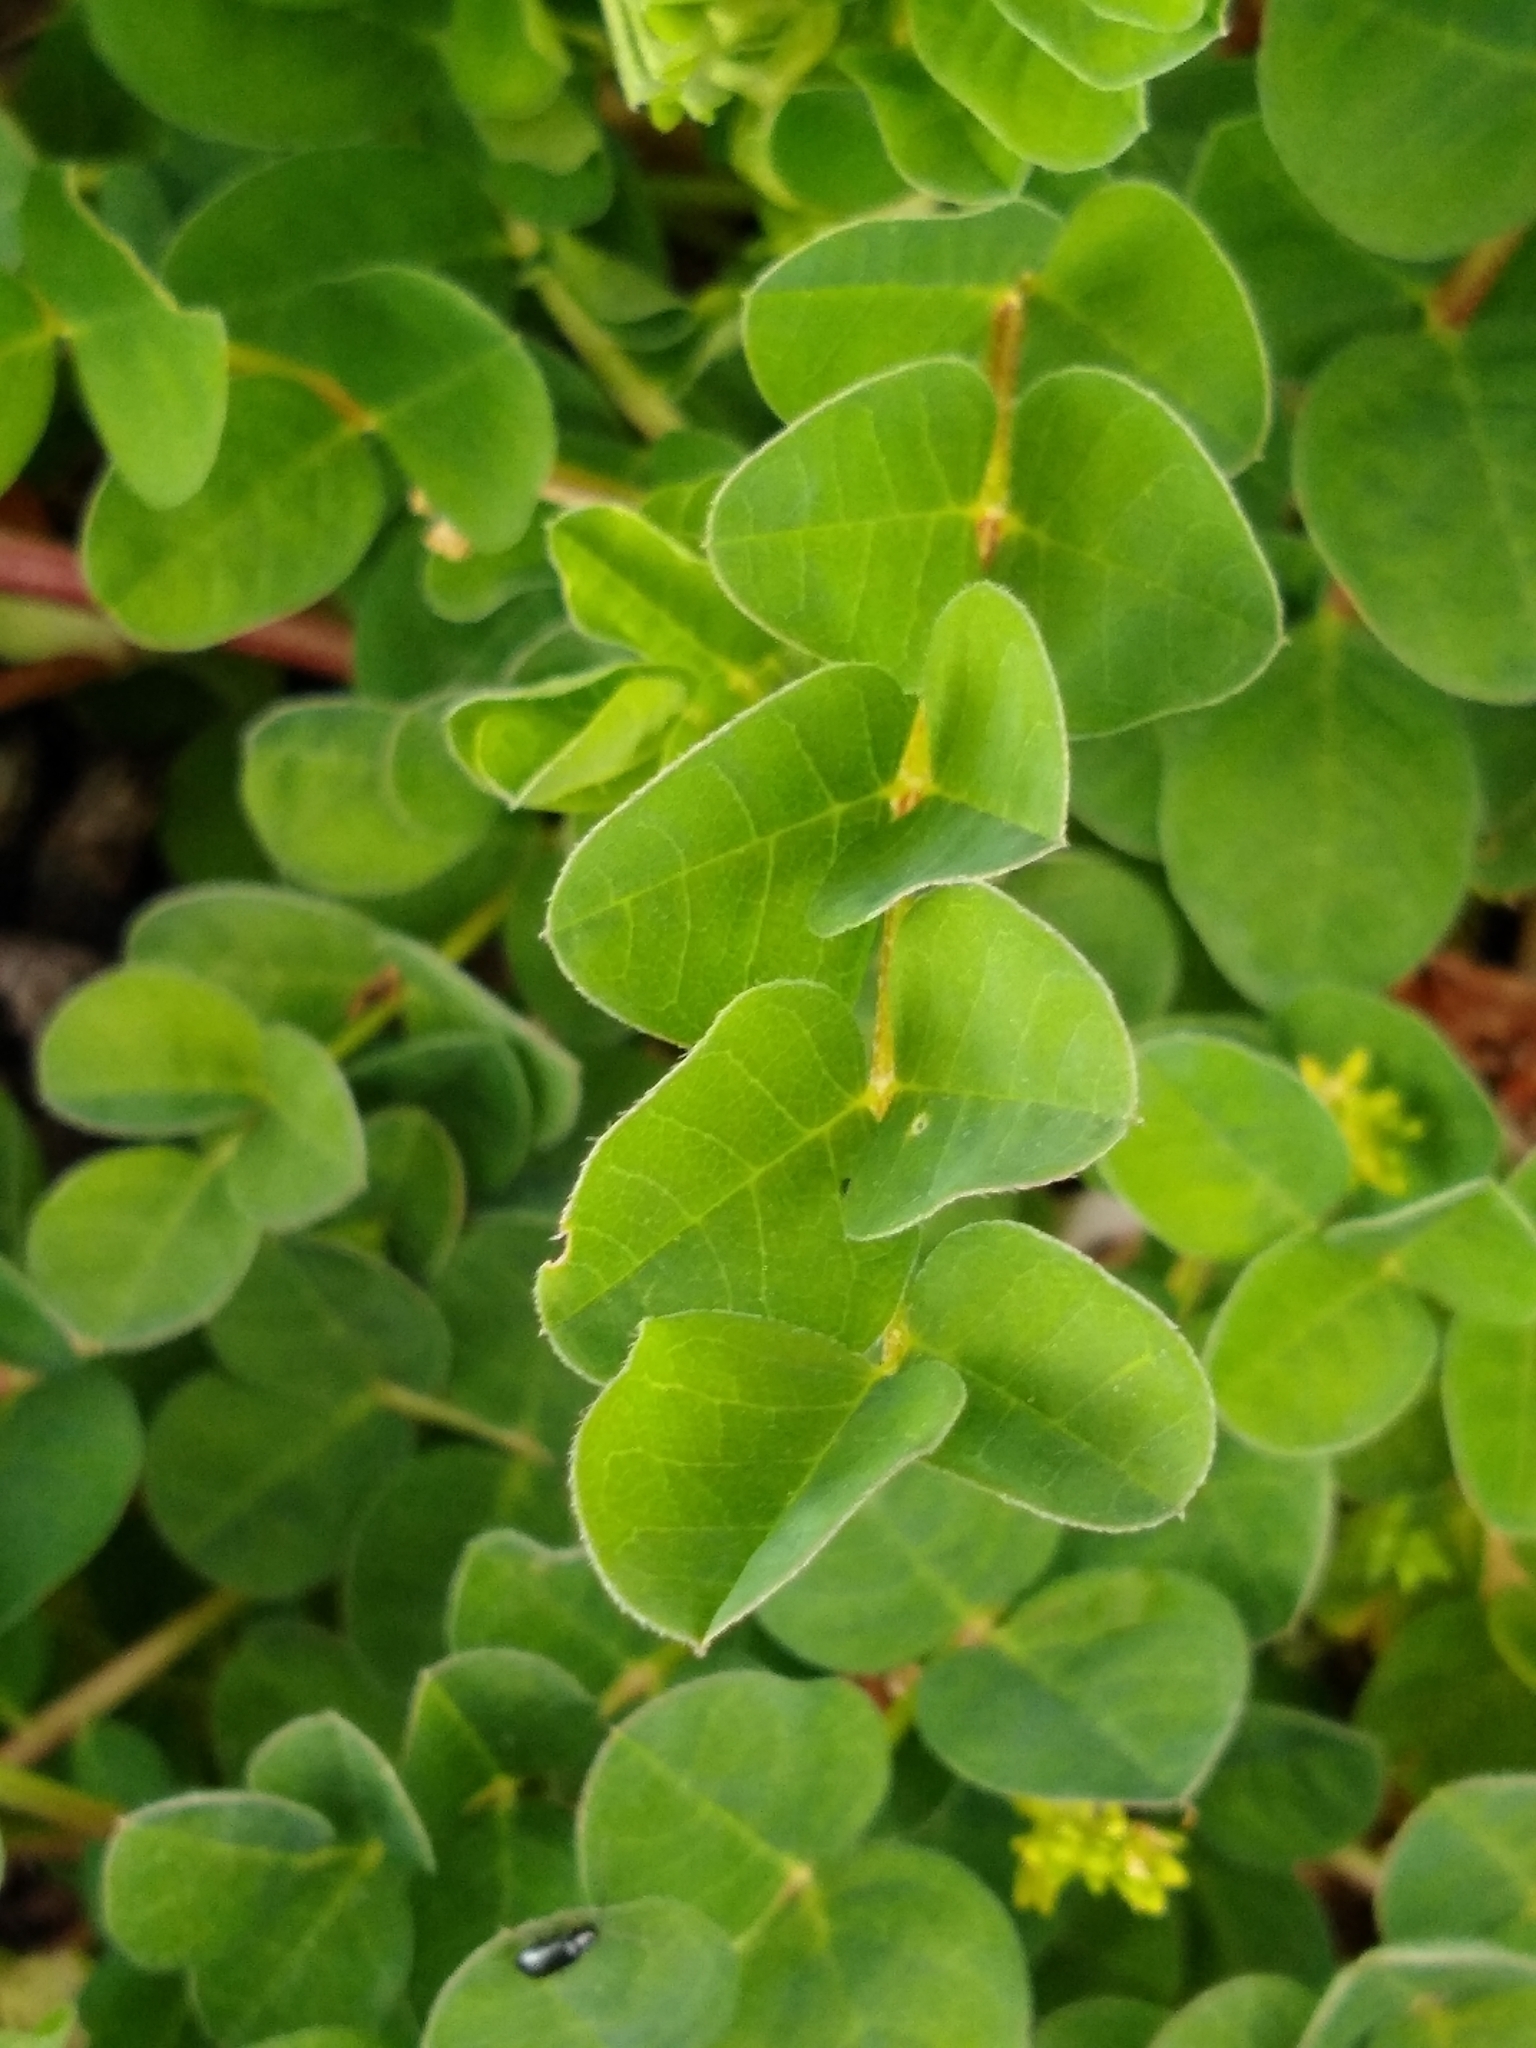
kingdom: Plantae
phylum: Tracheophyta
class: Magnoliopsida
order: Fabales
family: Fabaceae
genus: Astragalus
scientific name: Astragalus glycyphyllos
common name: Wild liquorice
